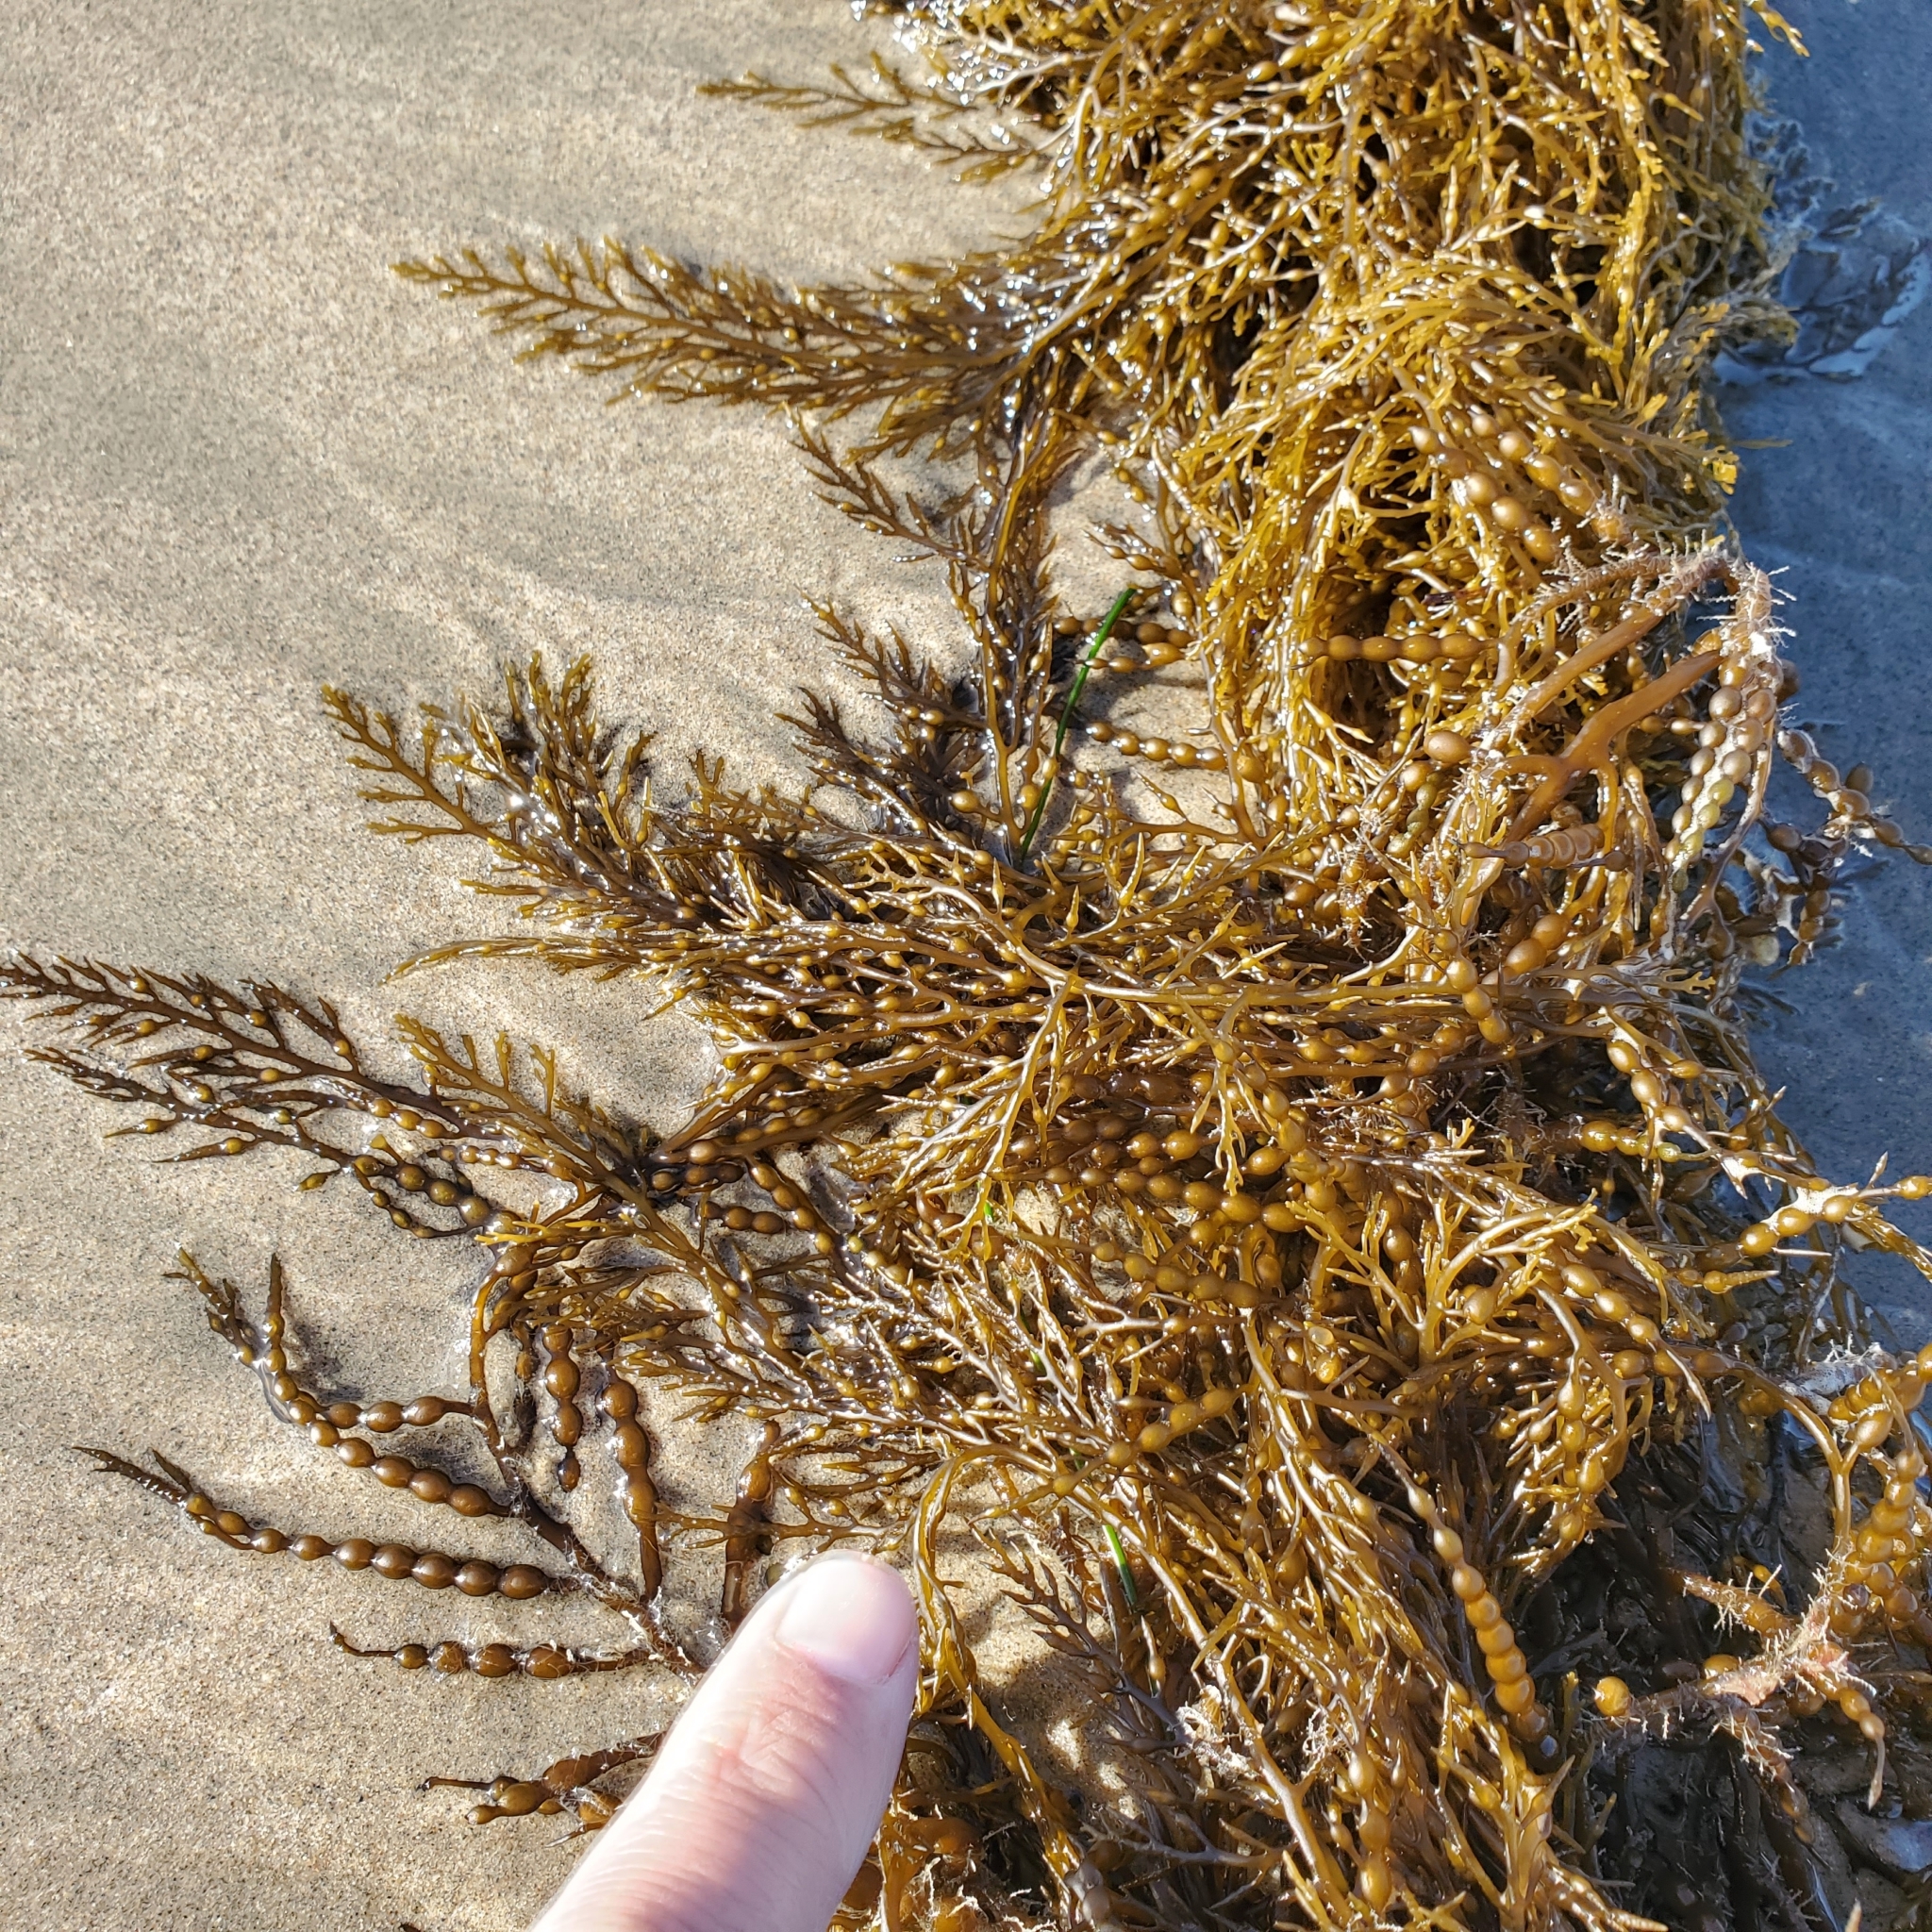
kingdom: Chromista
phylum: Ochrophyta
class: Phaeophyceae
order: Fucales
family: Sargassaceae
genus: Stephanocystis
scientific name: Stephanocystis
